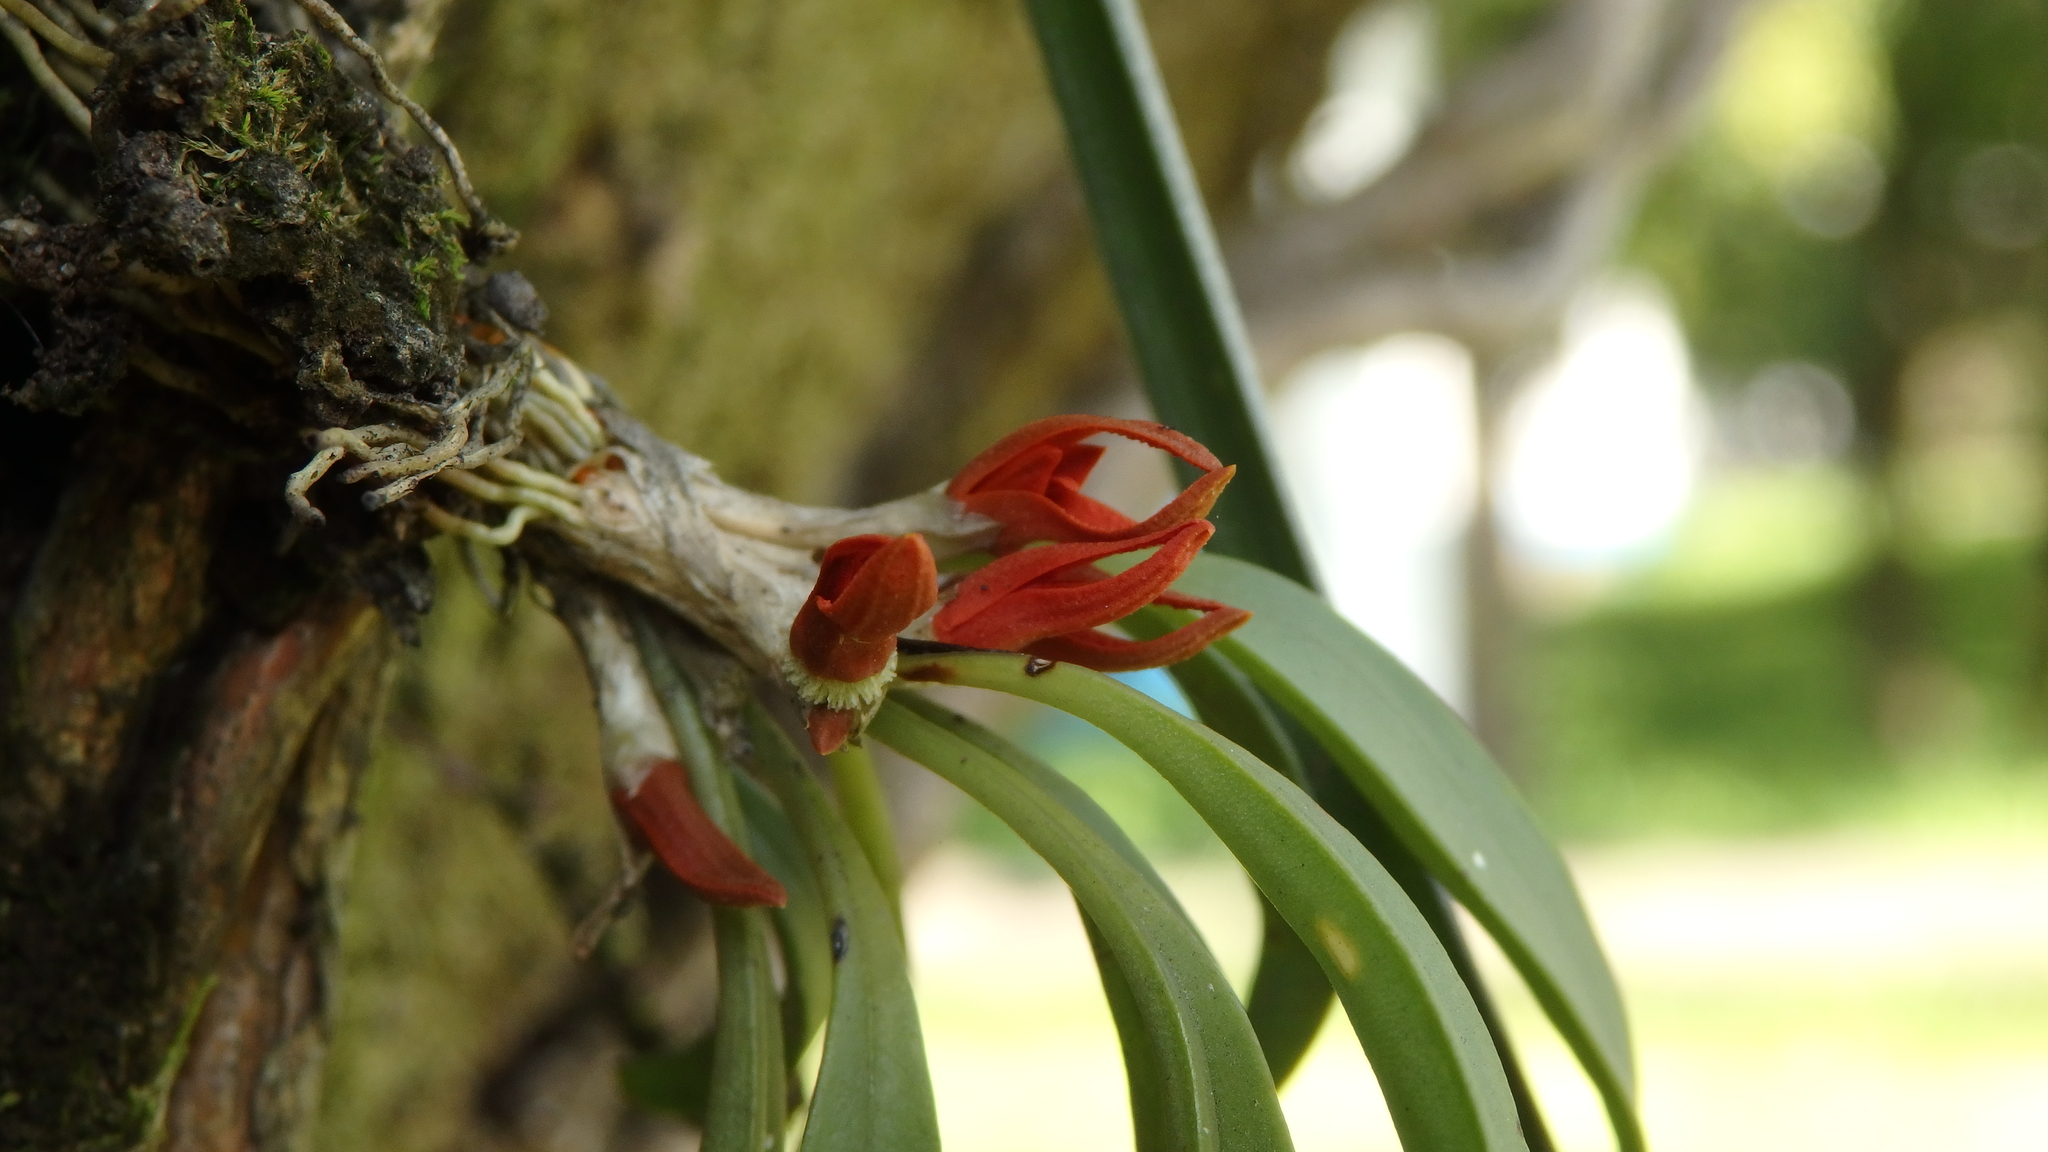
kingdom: Plantae
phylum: Tracheophyta
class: Liliopsida
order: Asparagales
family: Orchidaceae
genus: Specklinia
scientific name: Specklinia tribuloides
